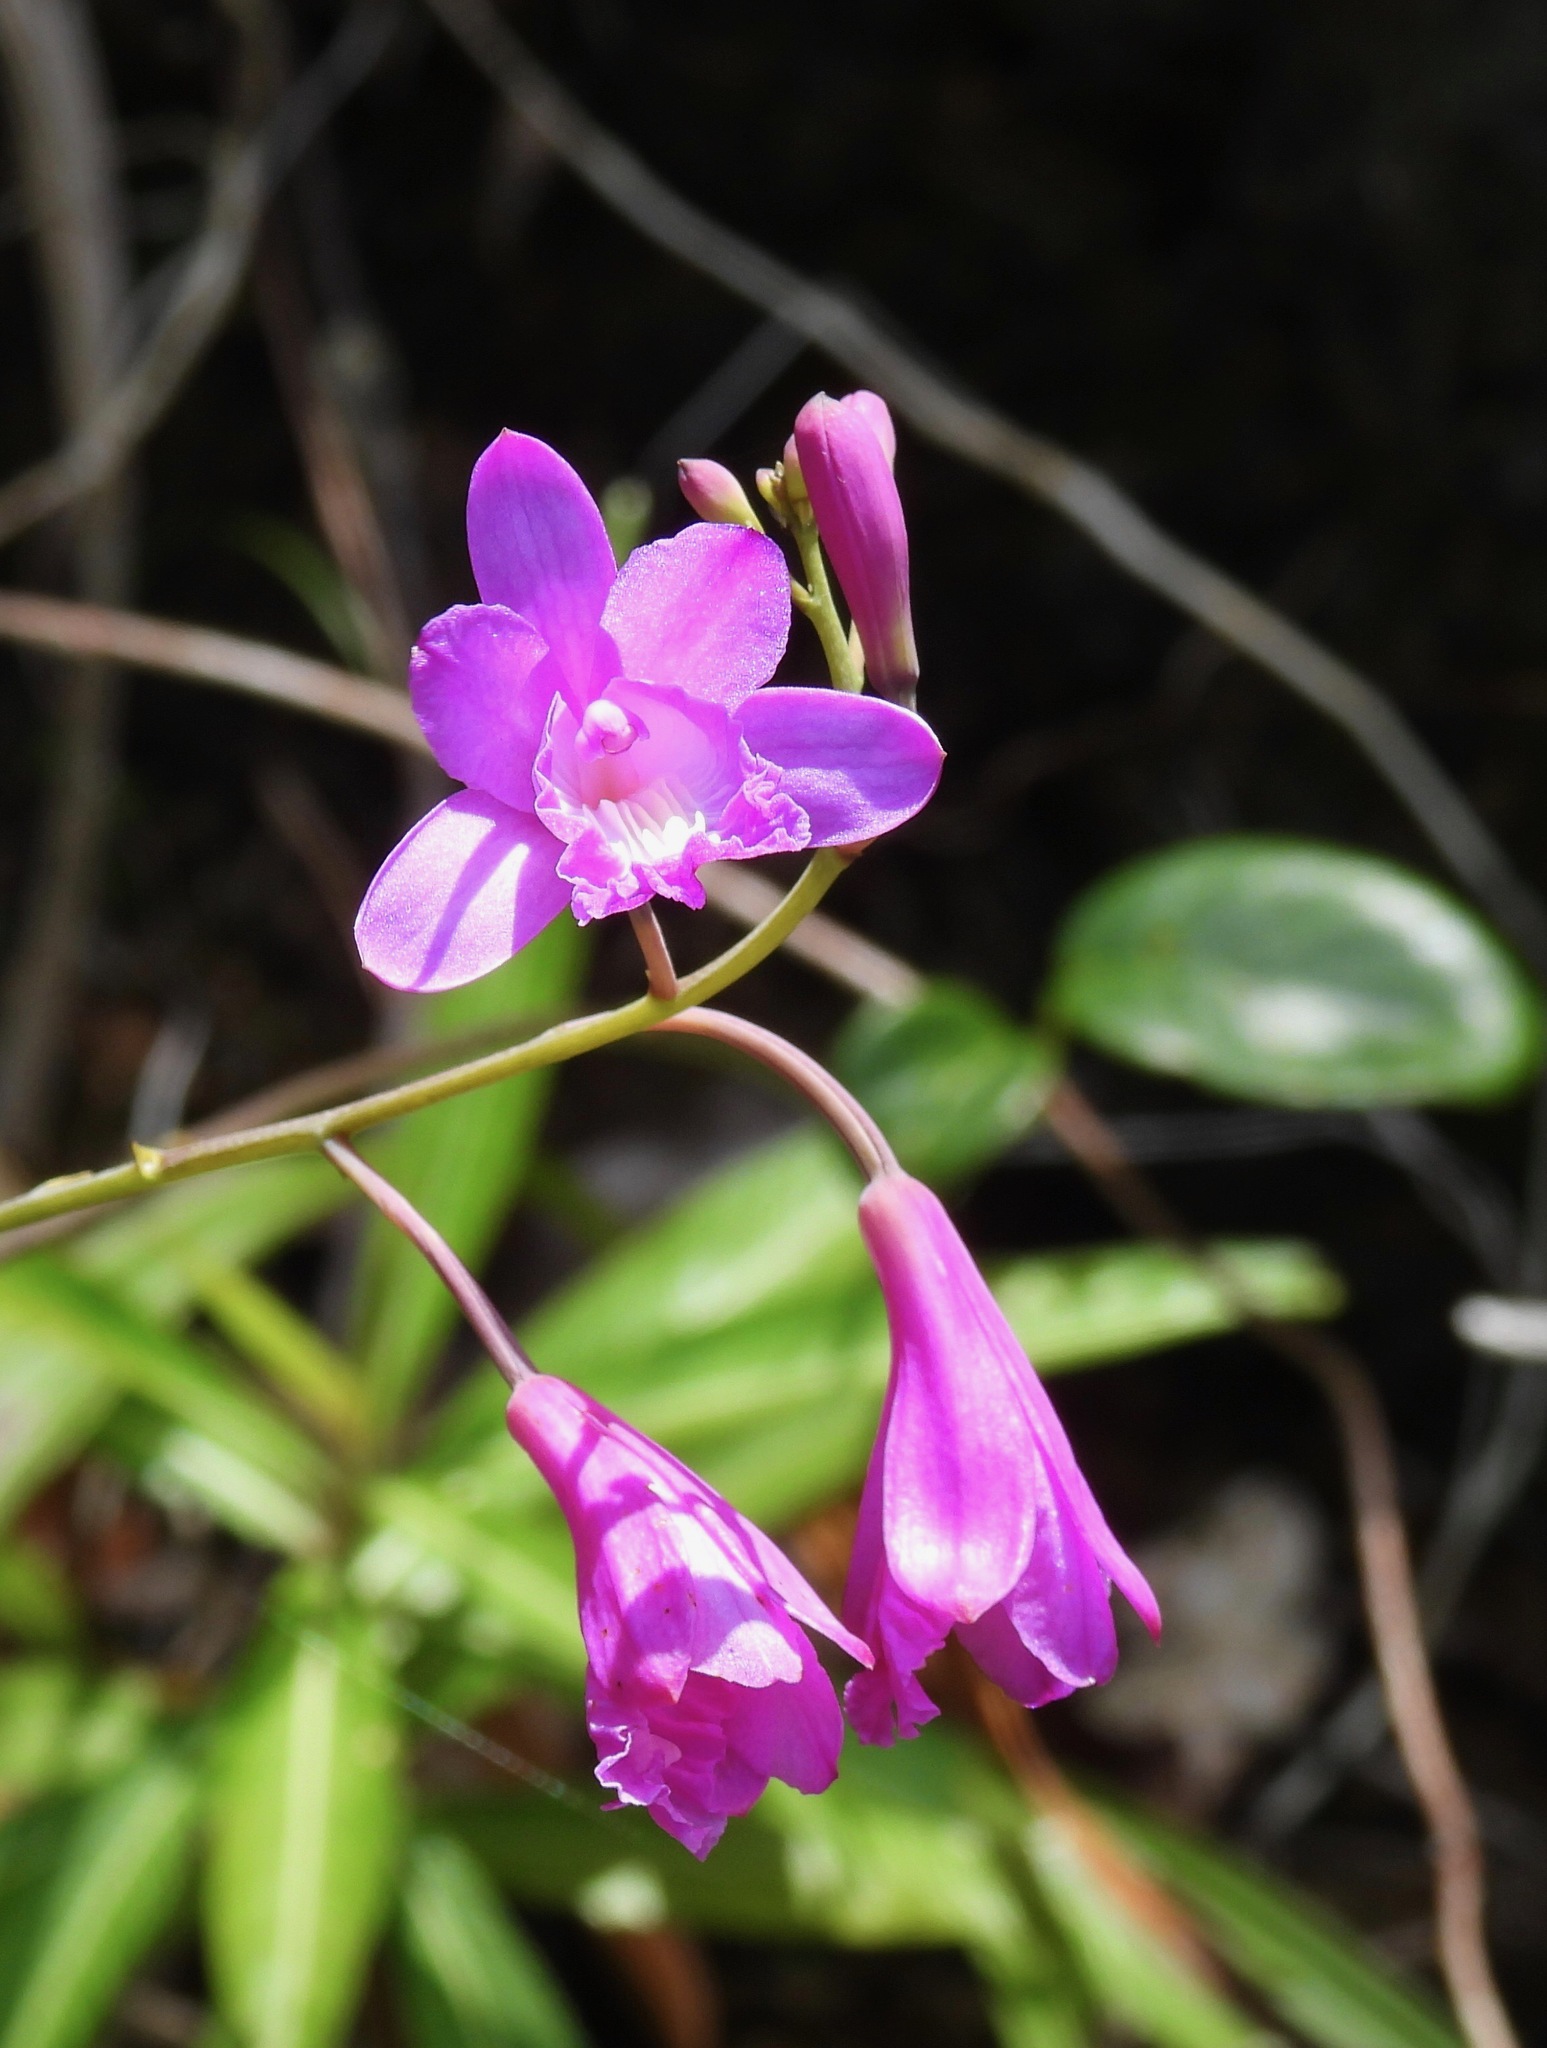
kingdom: Plantae
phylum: Tracheophyta
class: Liliopsida
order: Asparagales
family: Orchidaceae
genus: Bletia
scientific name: Bletia patula
